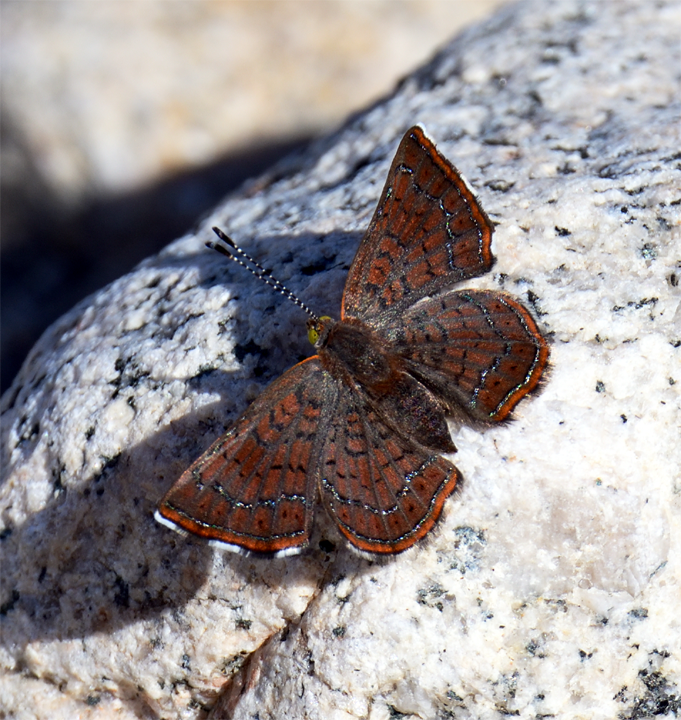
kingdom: Animalia
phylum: Arthropoda
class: Insecta
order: Lepidoptera
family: Lycaenidae
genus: Emesis
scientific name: Emesis wrighti
